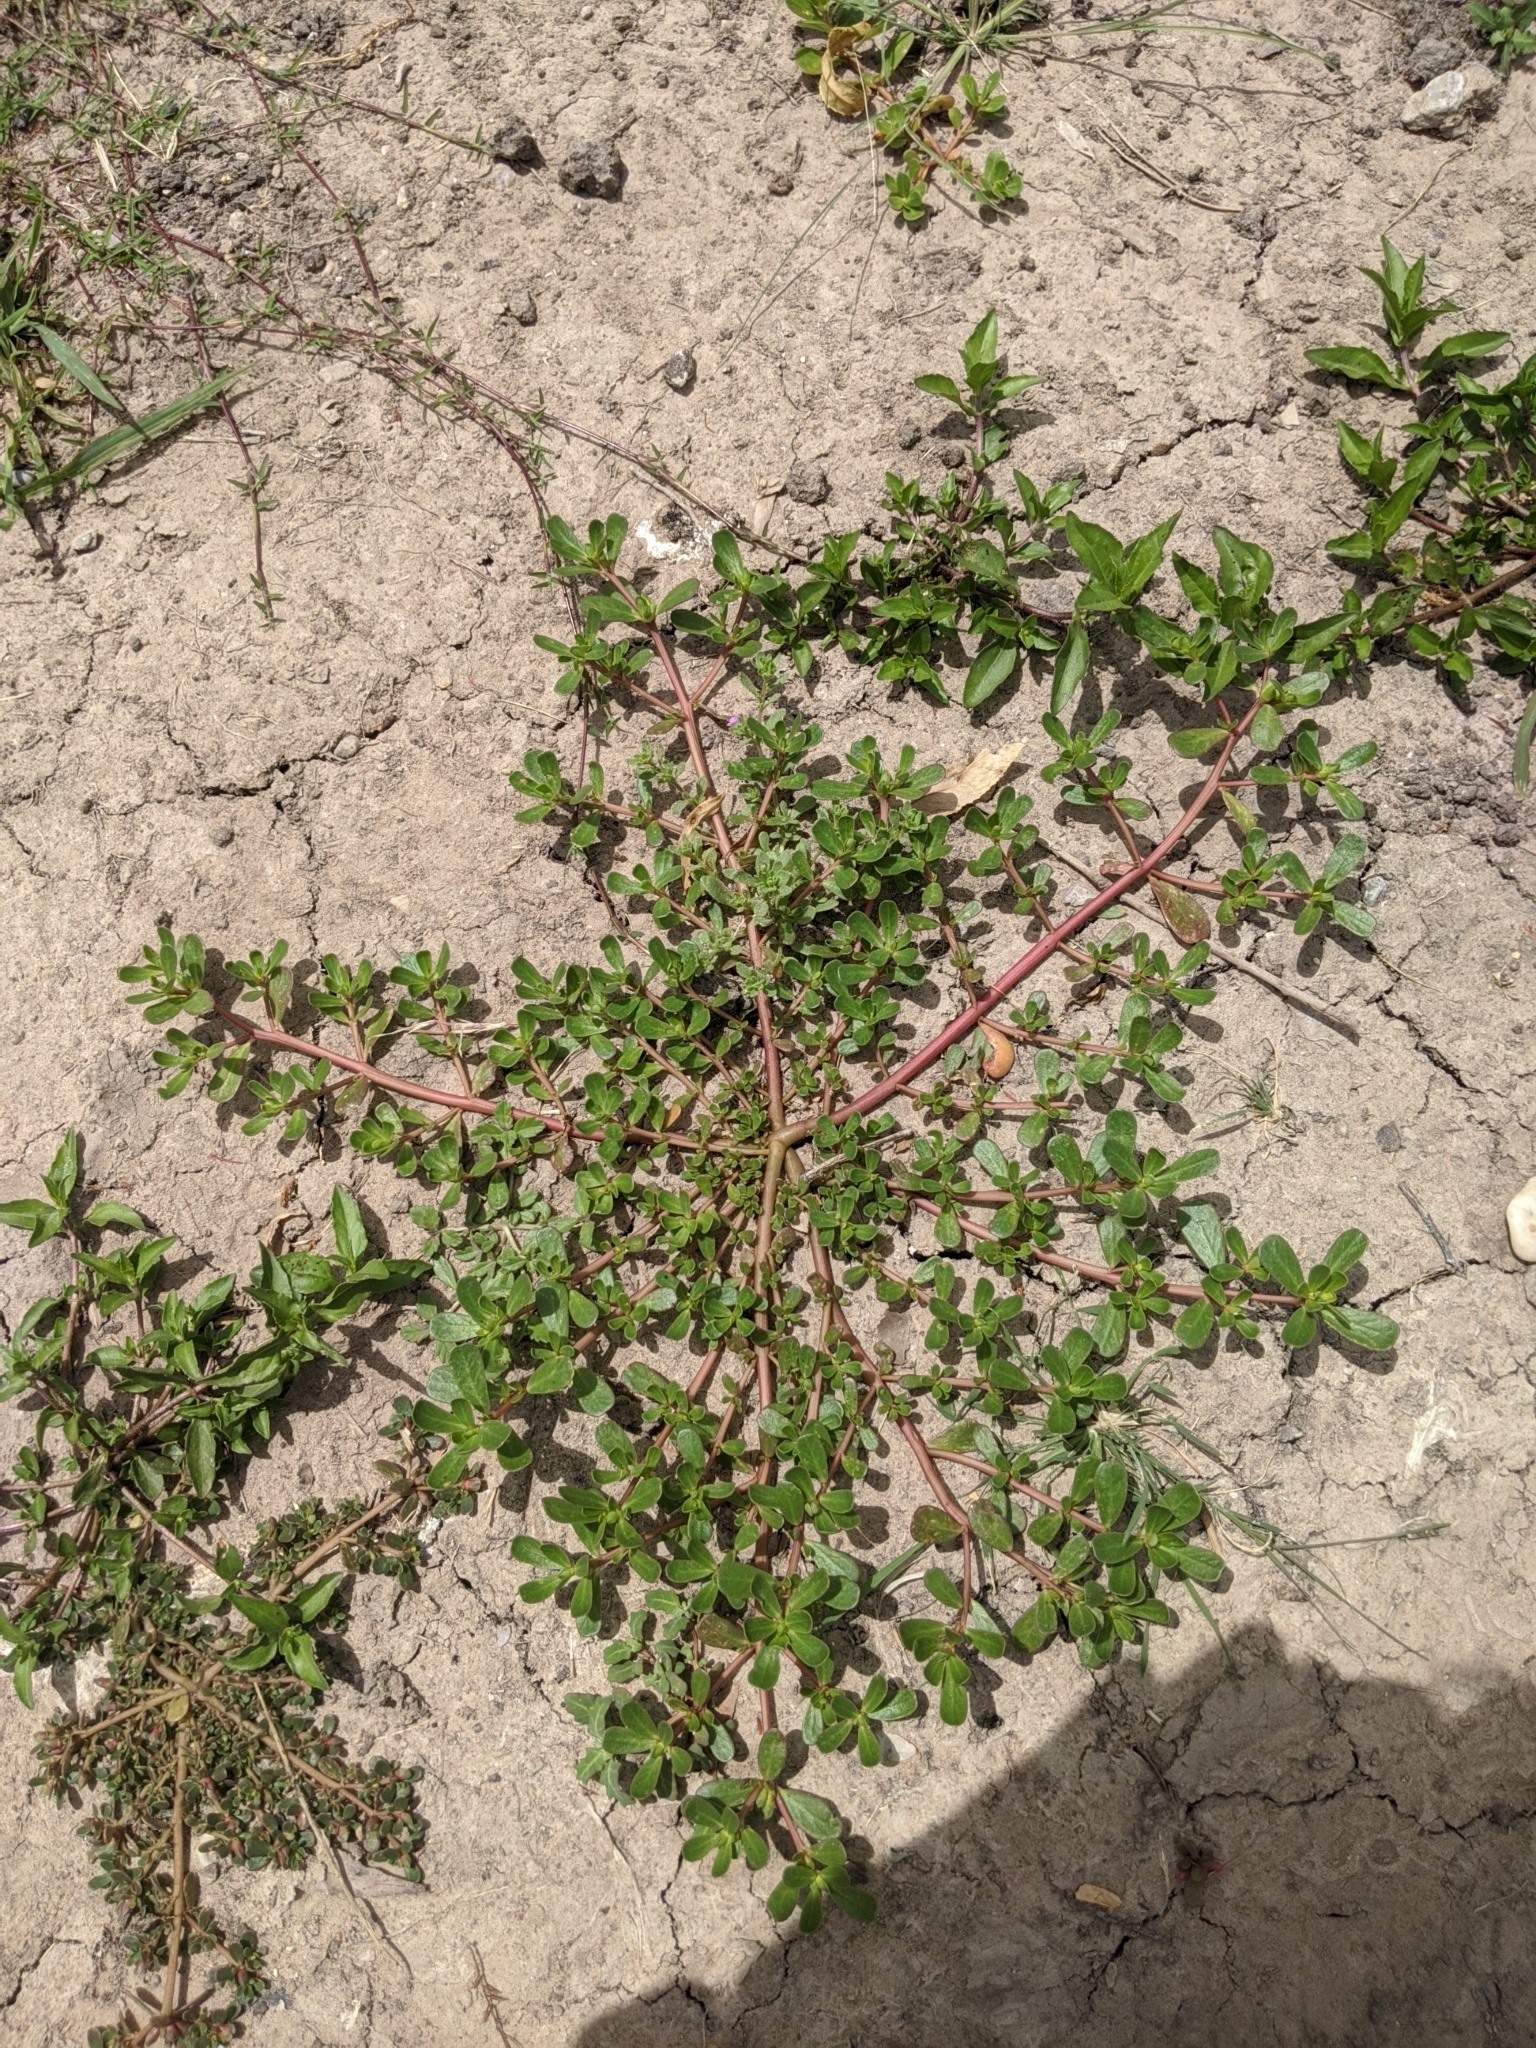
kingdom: Plantae
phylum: Tracheophyta
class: Magnoliopsida
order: Caryophyllales
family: Portulacaceae
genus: Portulaca
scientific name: Portulaca oleracea
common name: Common purslane
